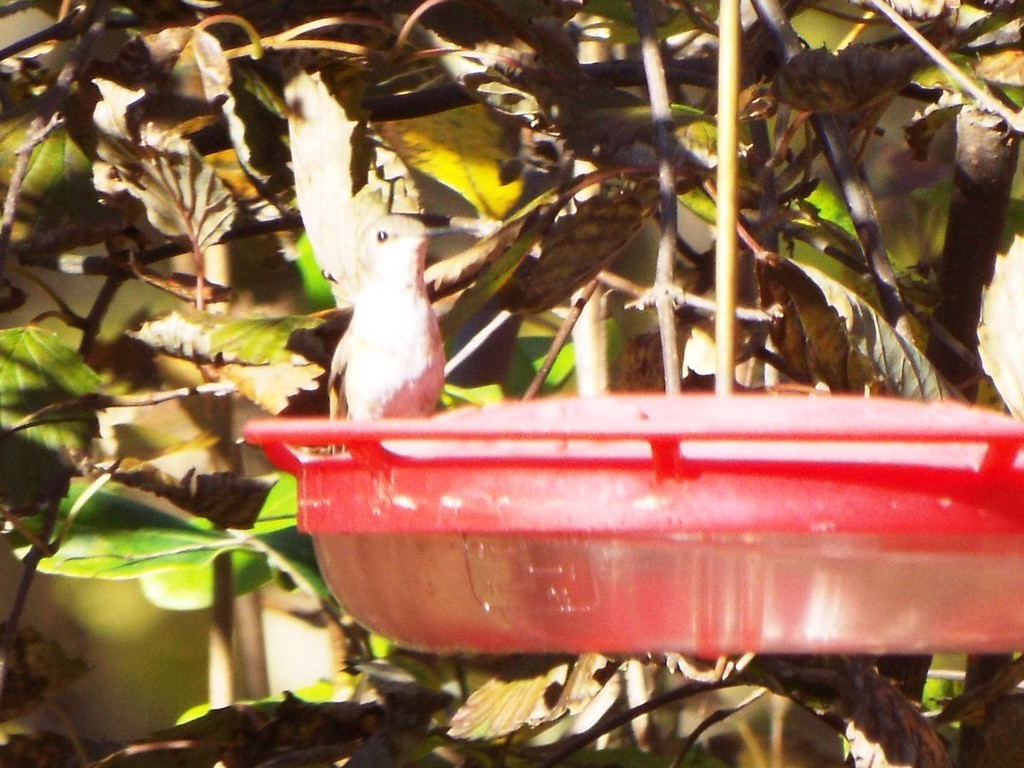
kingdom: Animalia
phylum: Chordata
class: Aves
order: Apodiformes
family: Trochilidae
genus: Selasphorus
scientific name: Selasphorus rufus
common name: Rufous hummingbird
